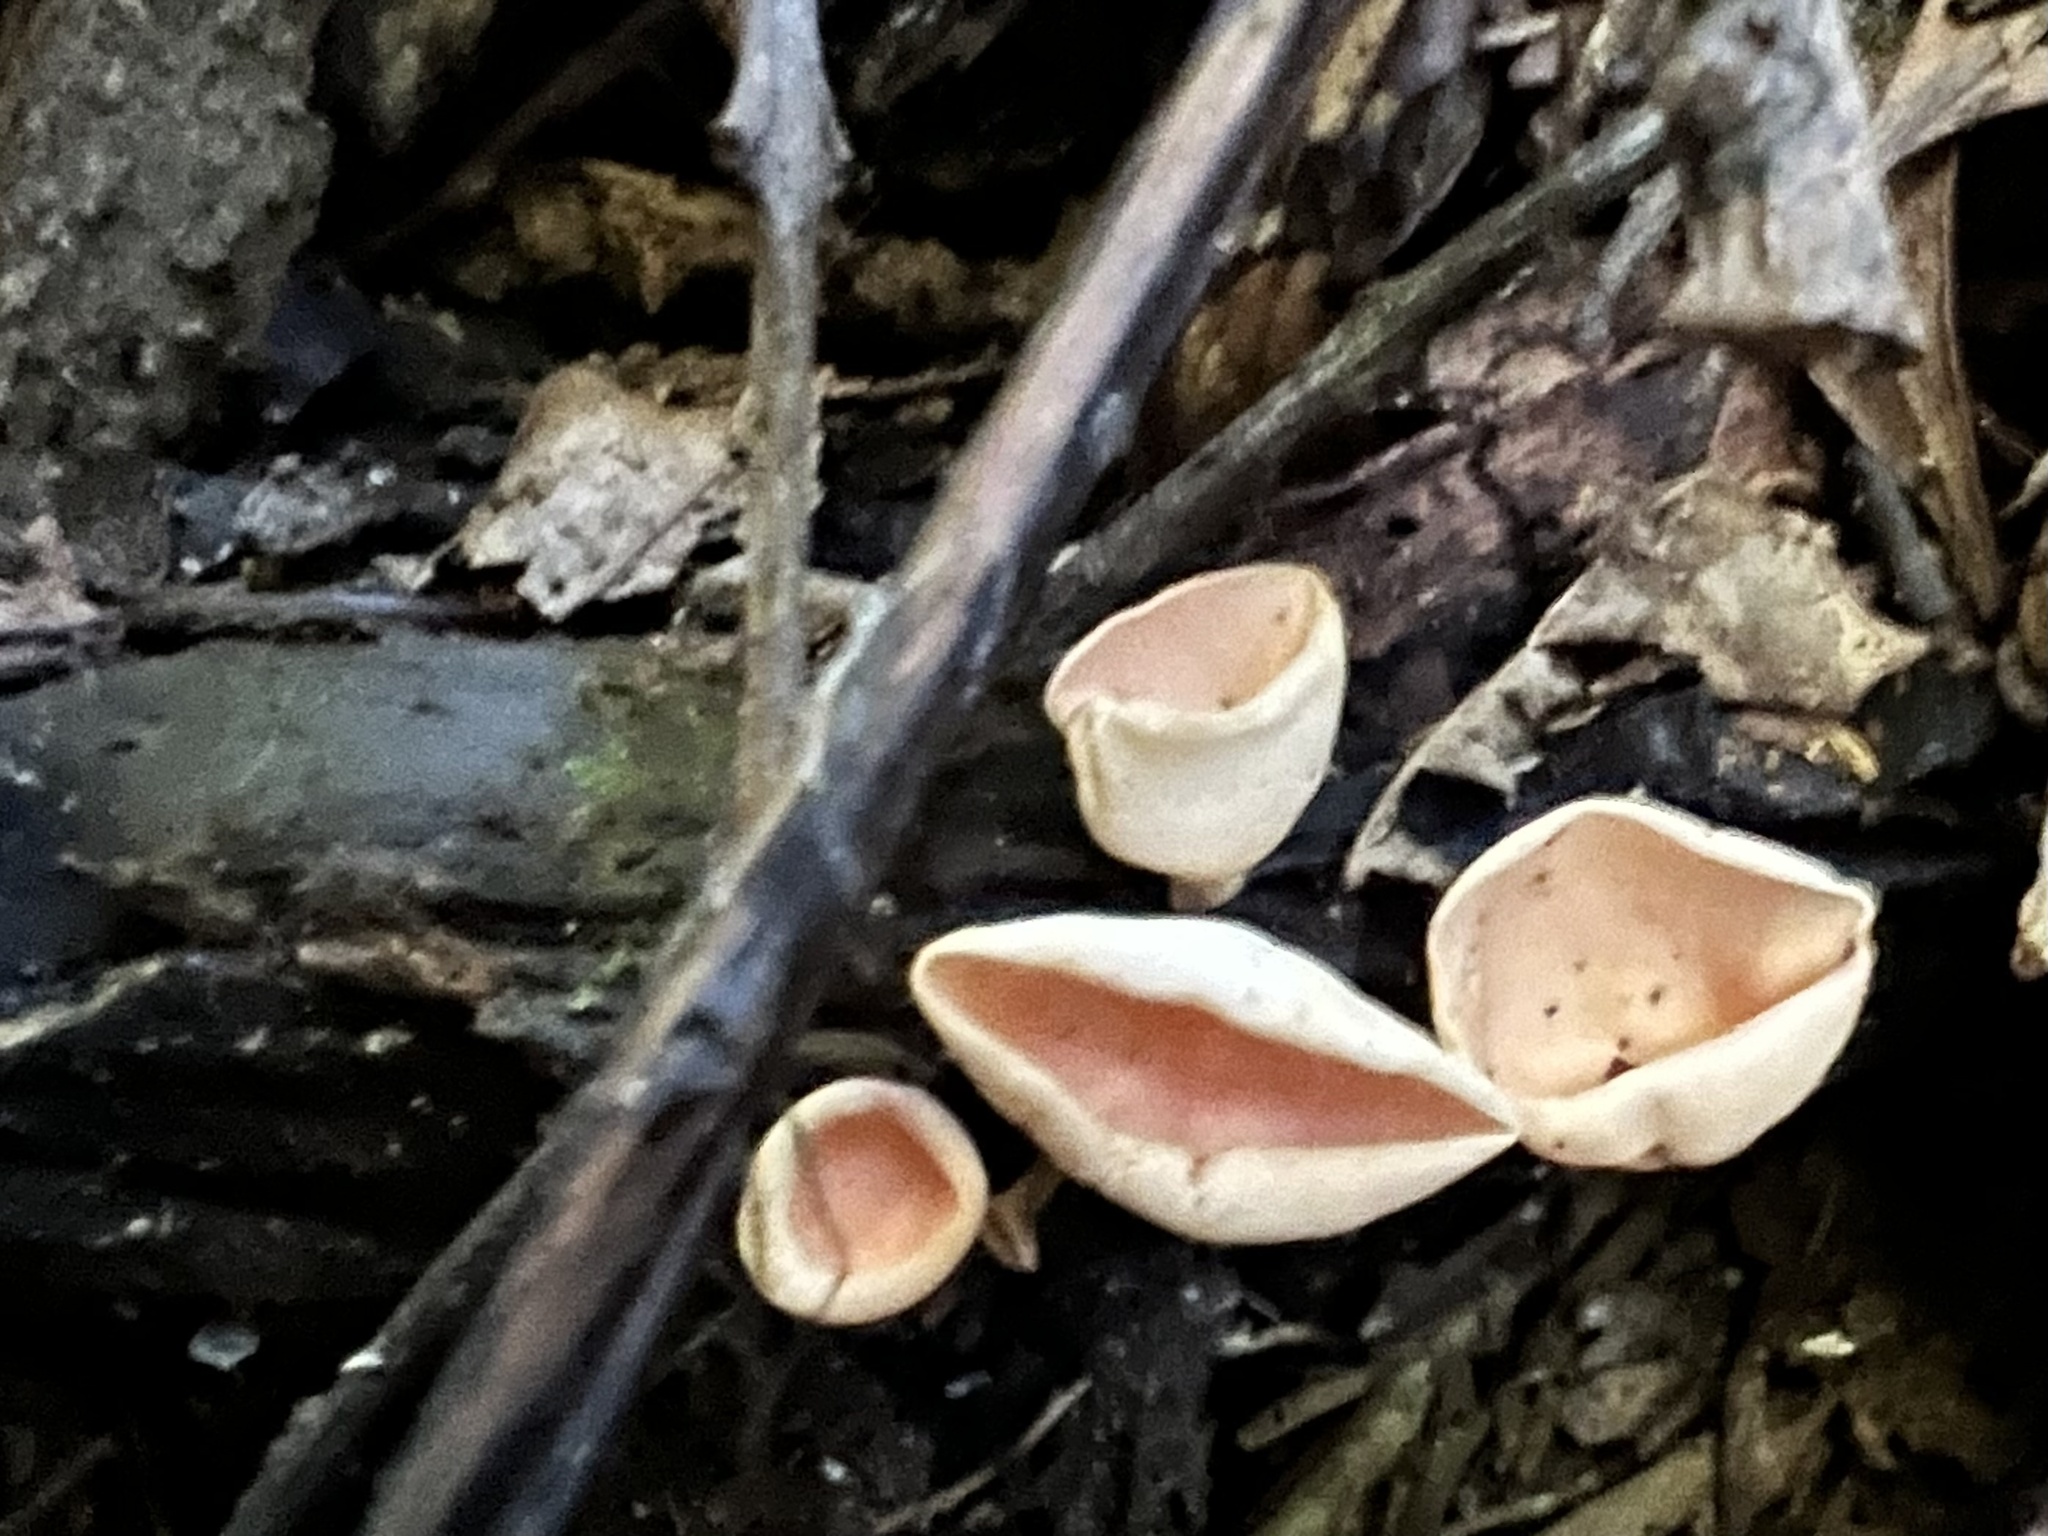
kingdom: Fungi
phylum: Ascomycota
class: Pezizomycetes
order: Pezizales
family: Sarcoscyphaceae
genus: Cookeina
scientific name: Cookeina colensoi
